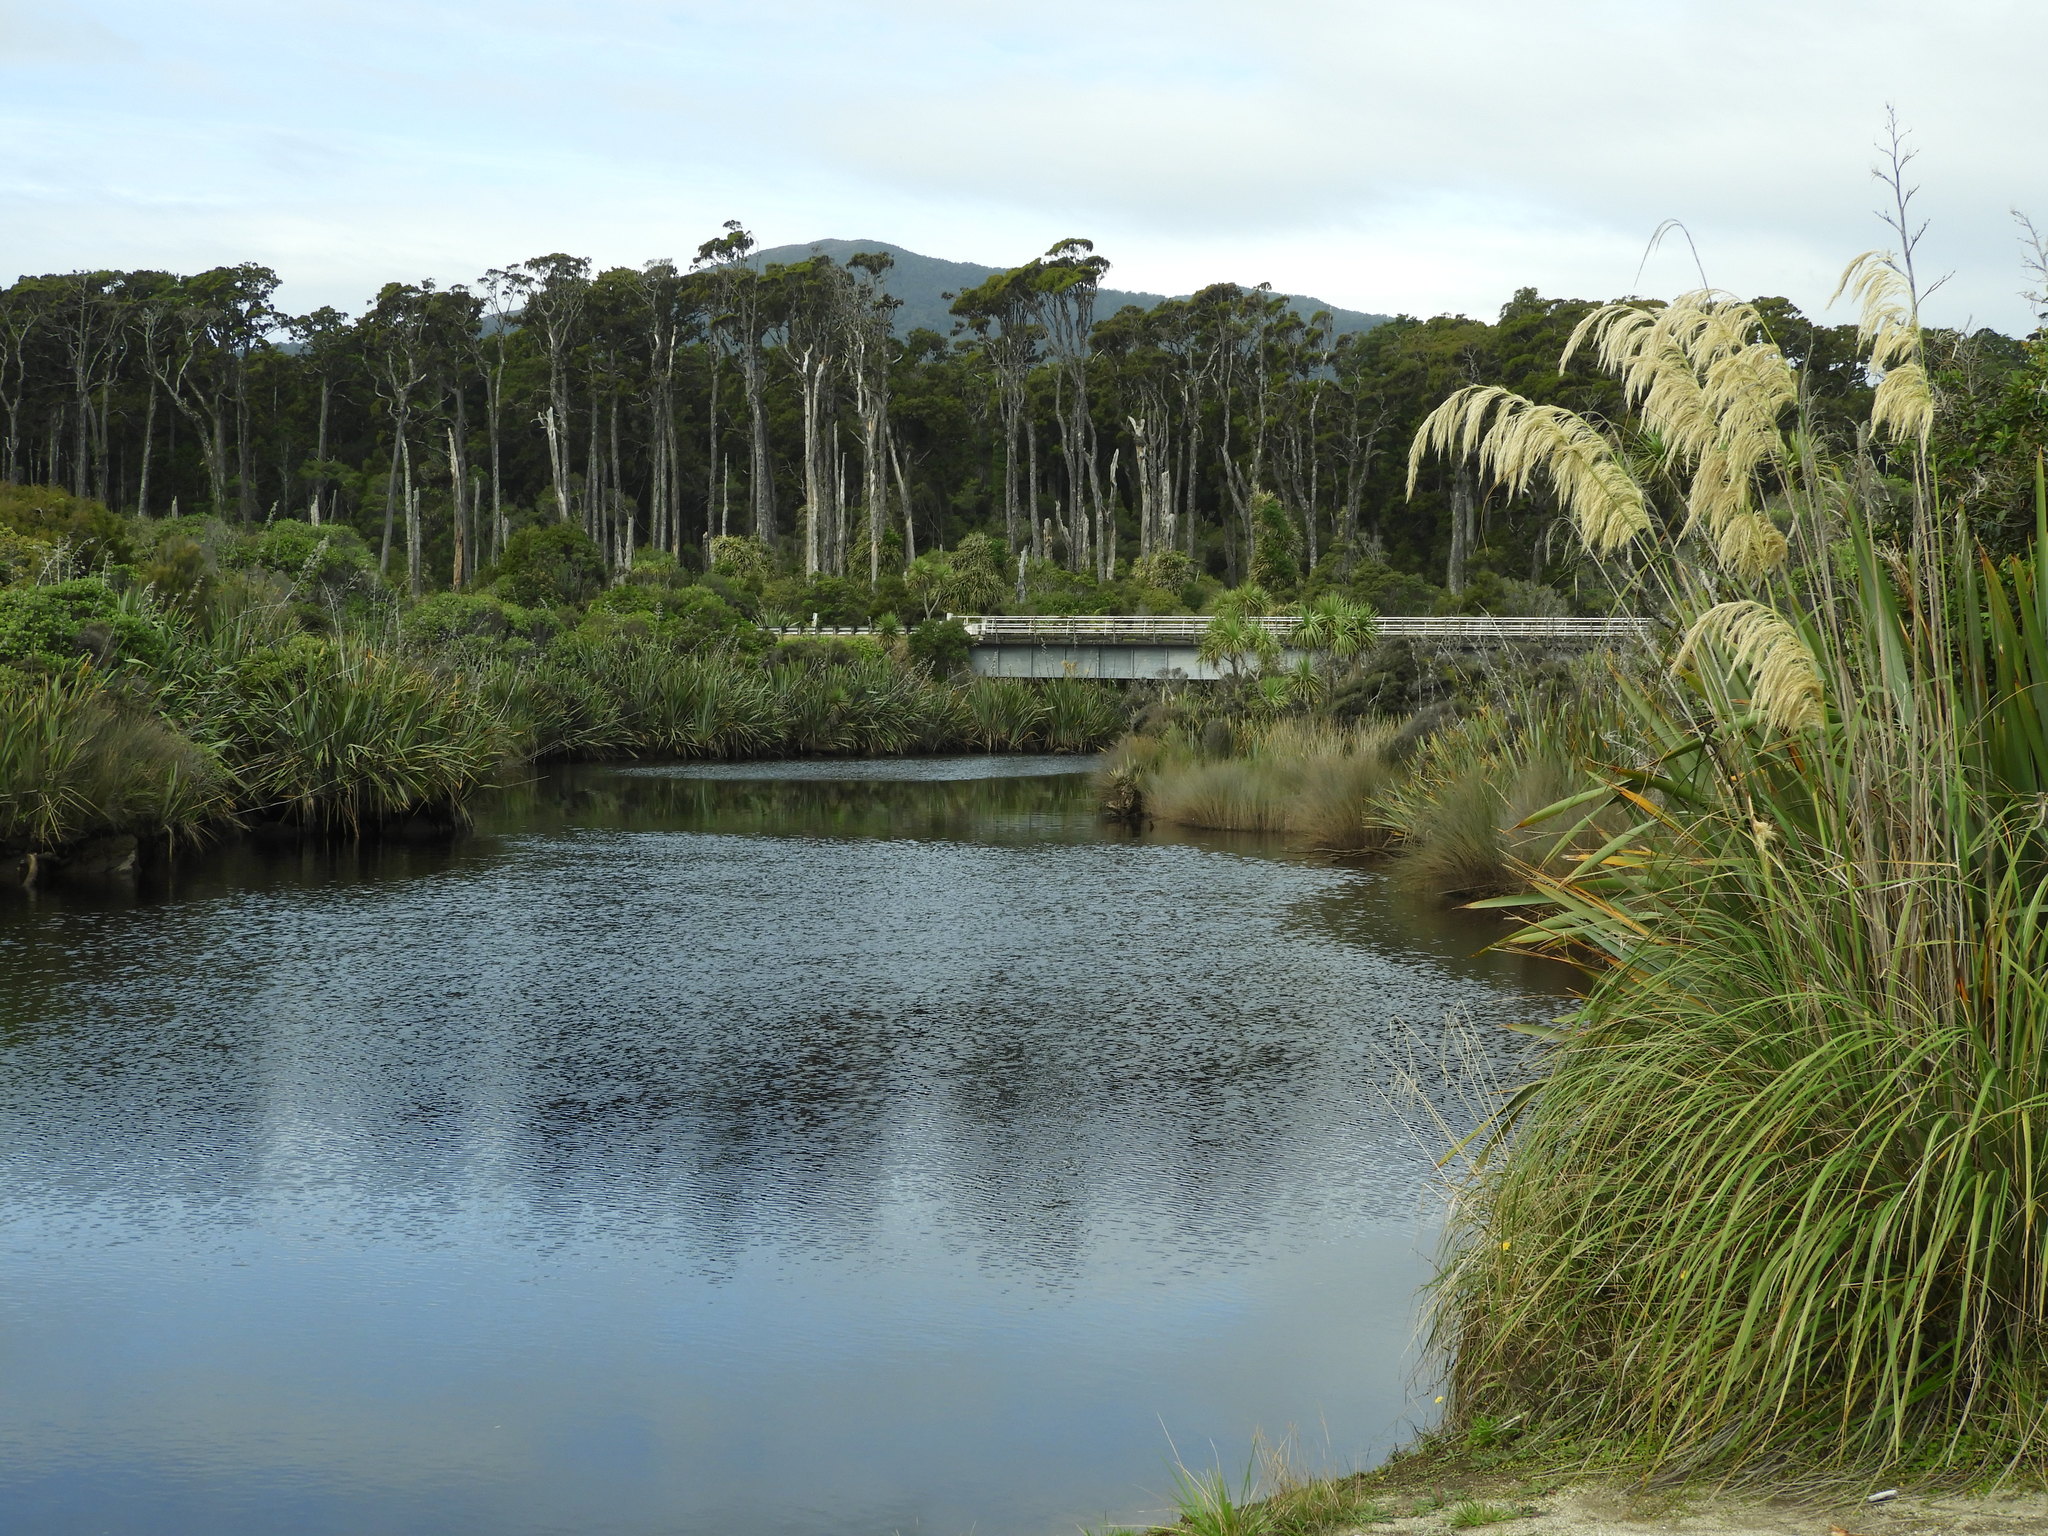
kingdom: Plantae
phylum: Tracheophyta
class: Liliopsida
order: Poales
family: Poaceae
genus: Austroderia
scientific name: Austroderia richardii
